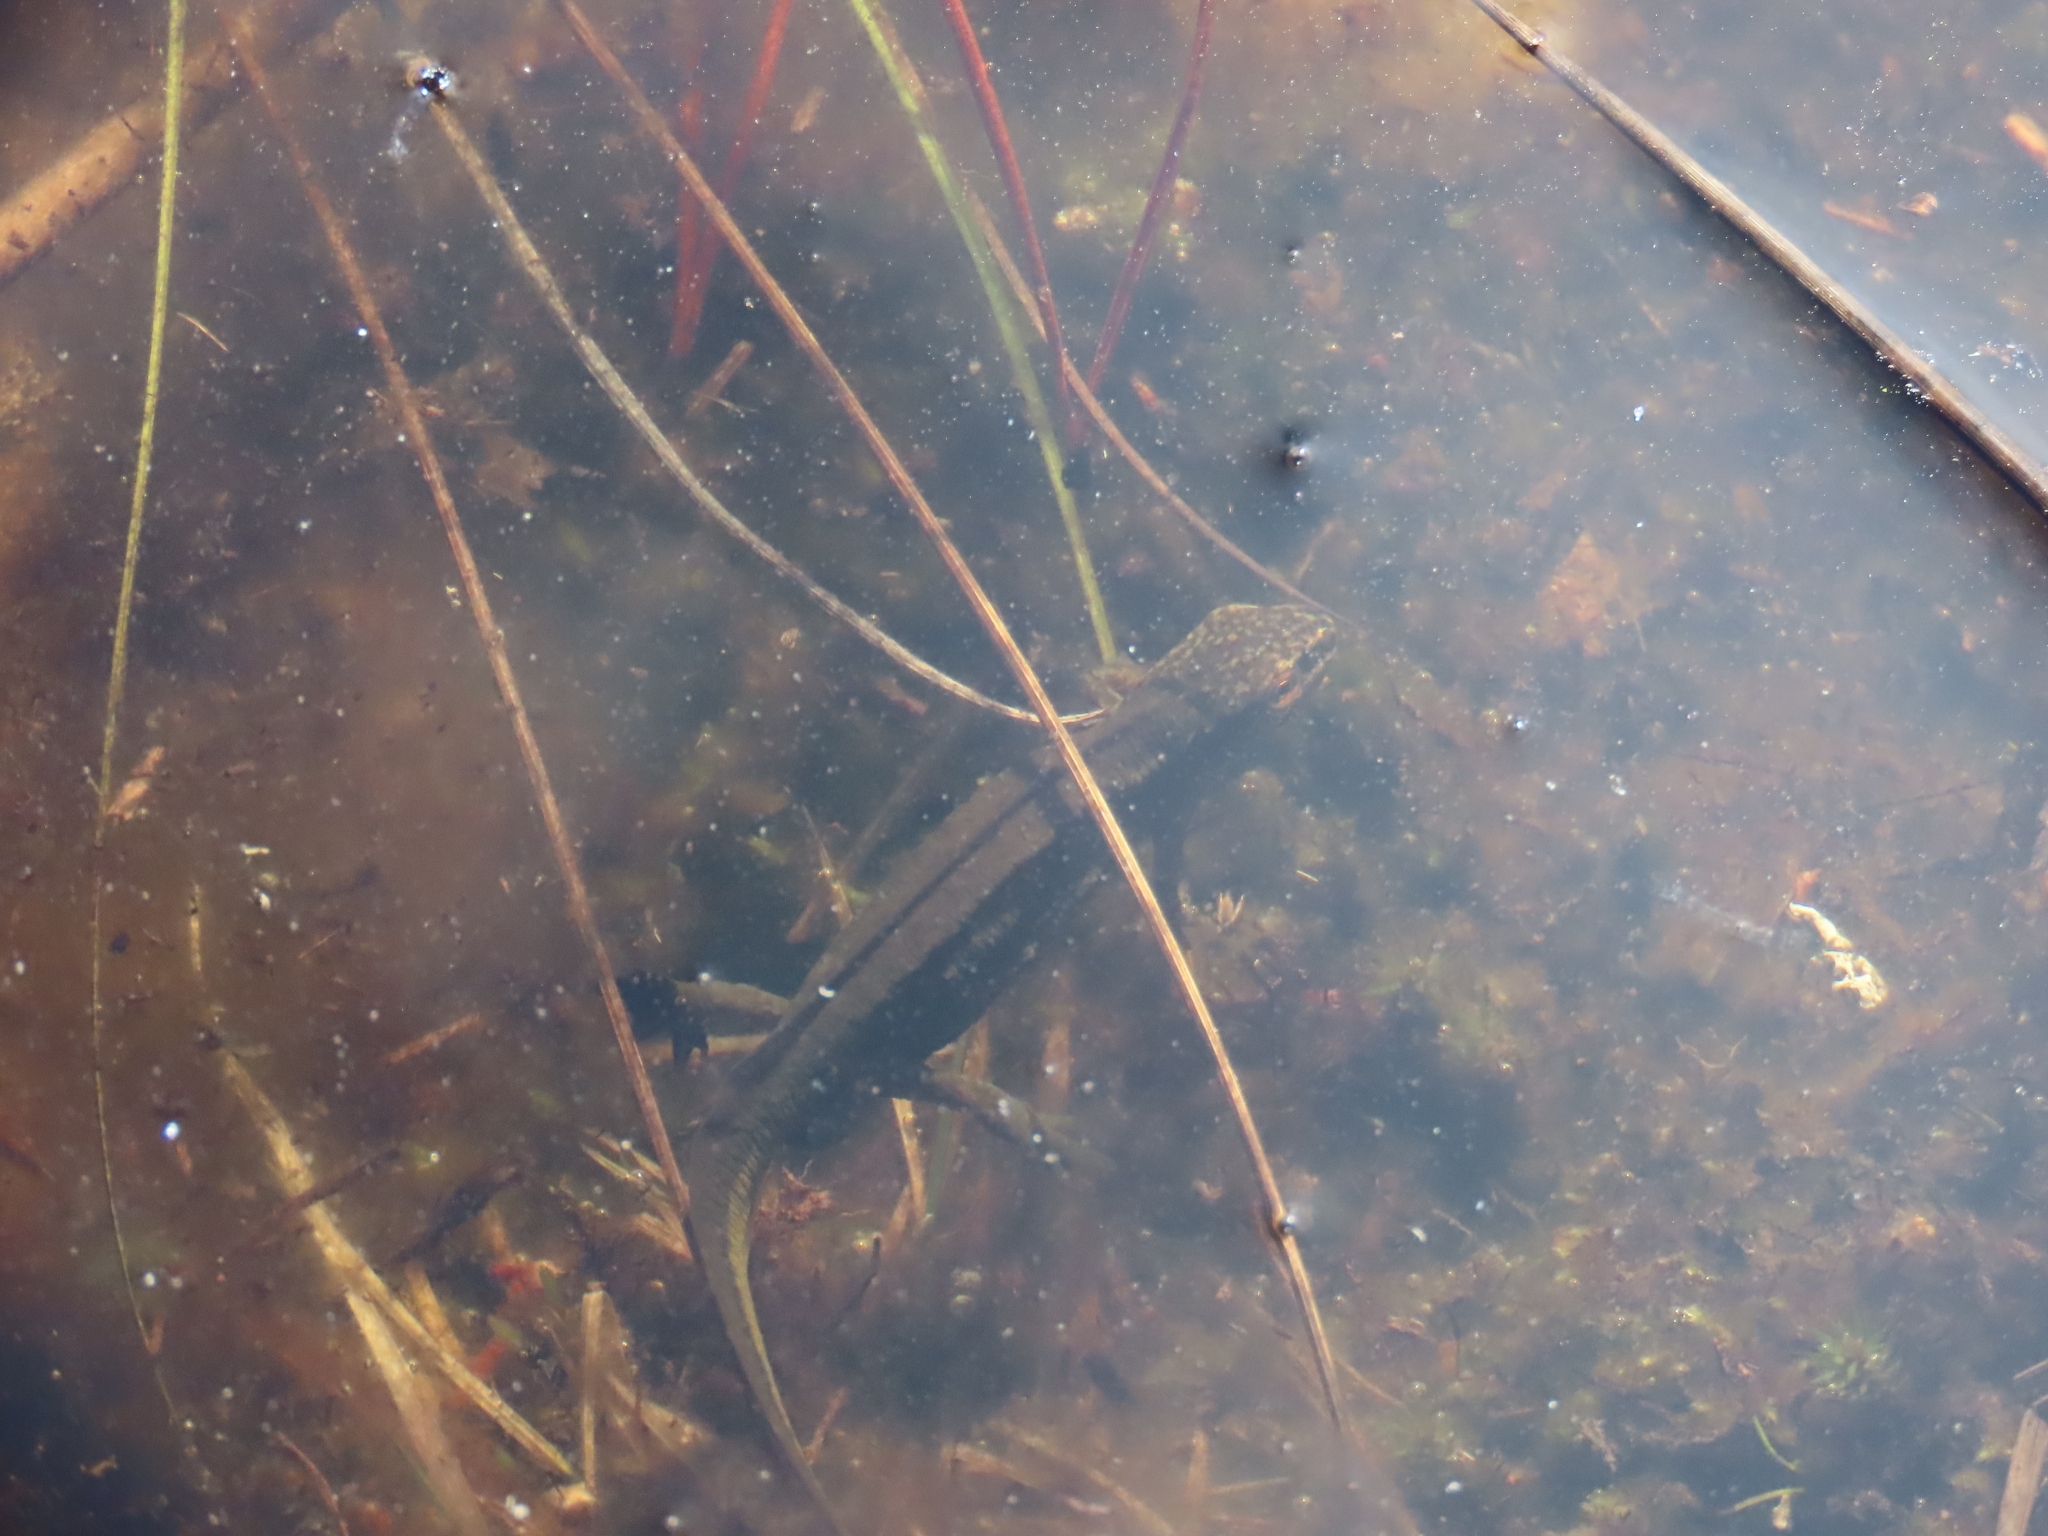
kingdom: Animalia
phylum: Chordata
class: Amphibia
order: Caudata
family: Salamandridae
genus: Lissotriton
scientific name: Lissotriton helveticus
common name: Palmate newt
